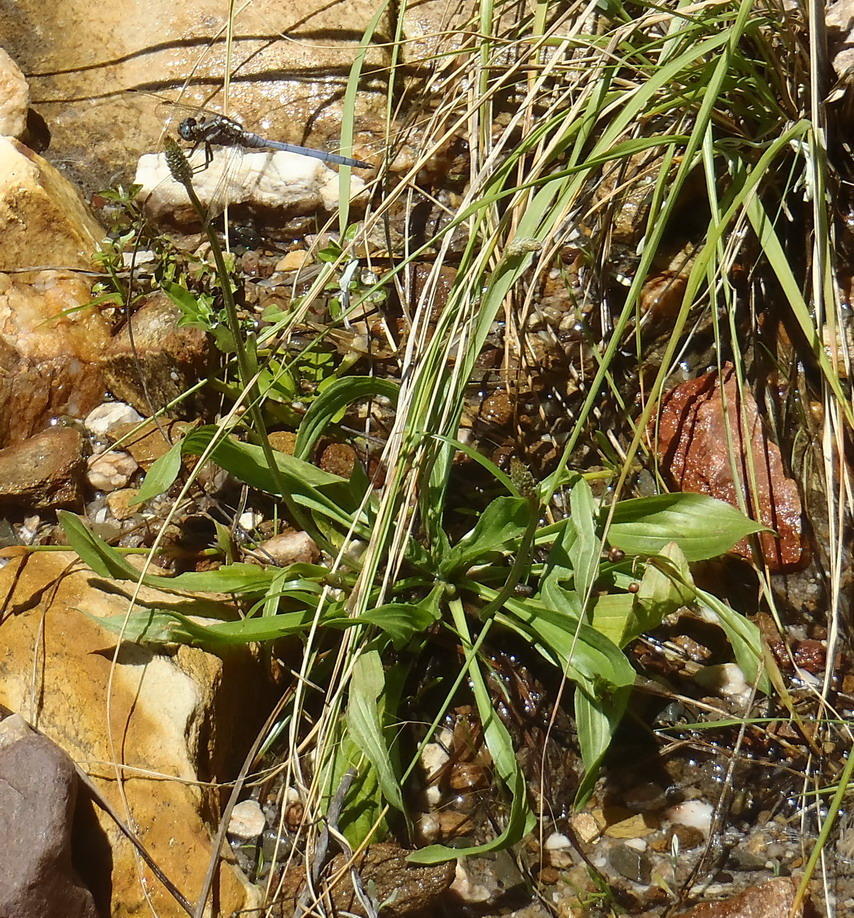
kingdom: Plantae
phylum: Tracheophyta
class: Magnoliopsida
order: Lamiales
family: Plantaginaceae
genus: Plantago
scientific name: Plantago lanceolata
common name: Ribwort plantain
